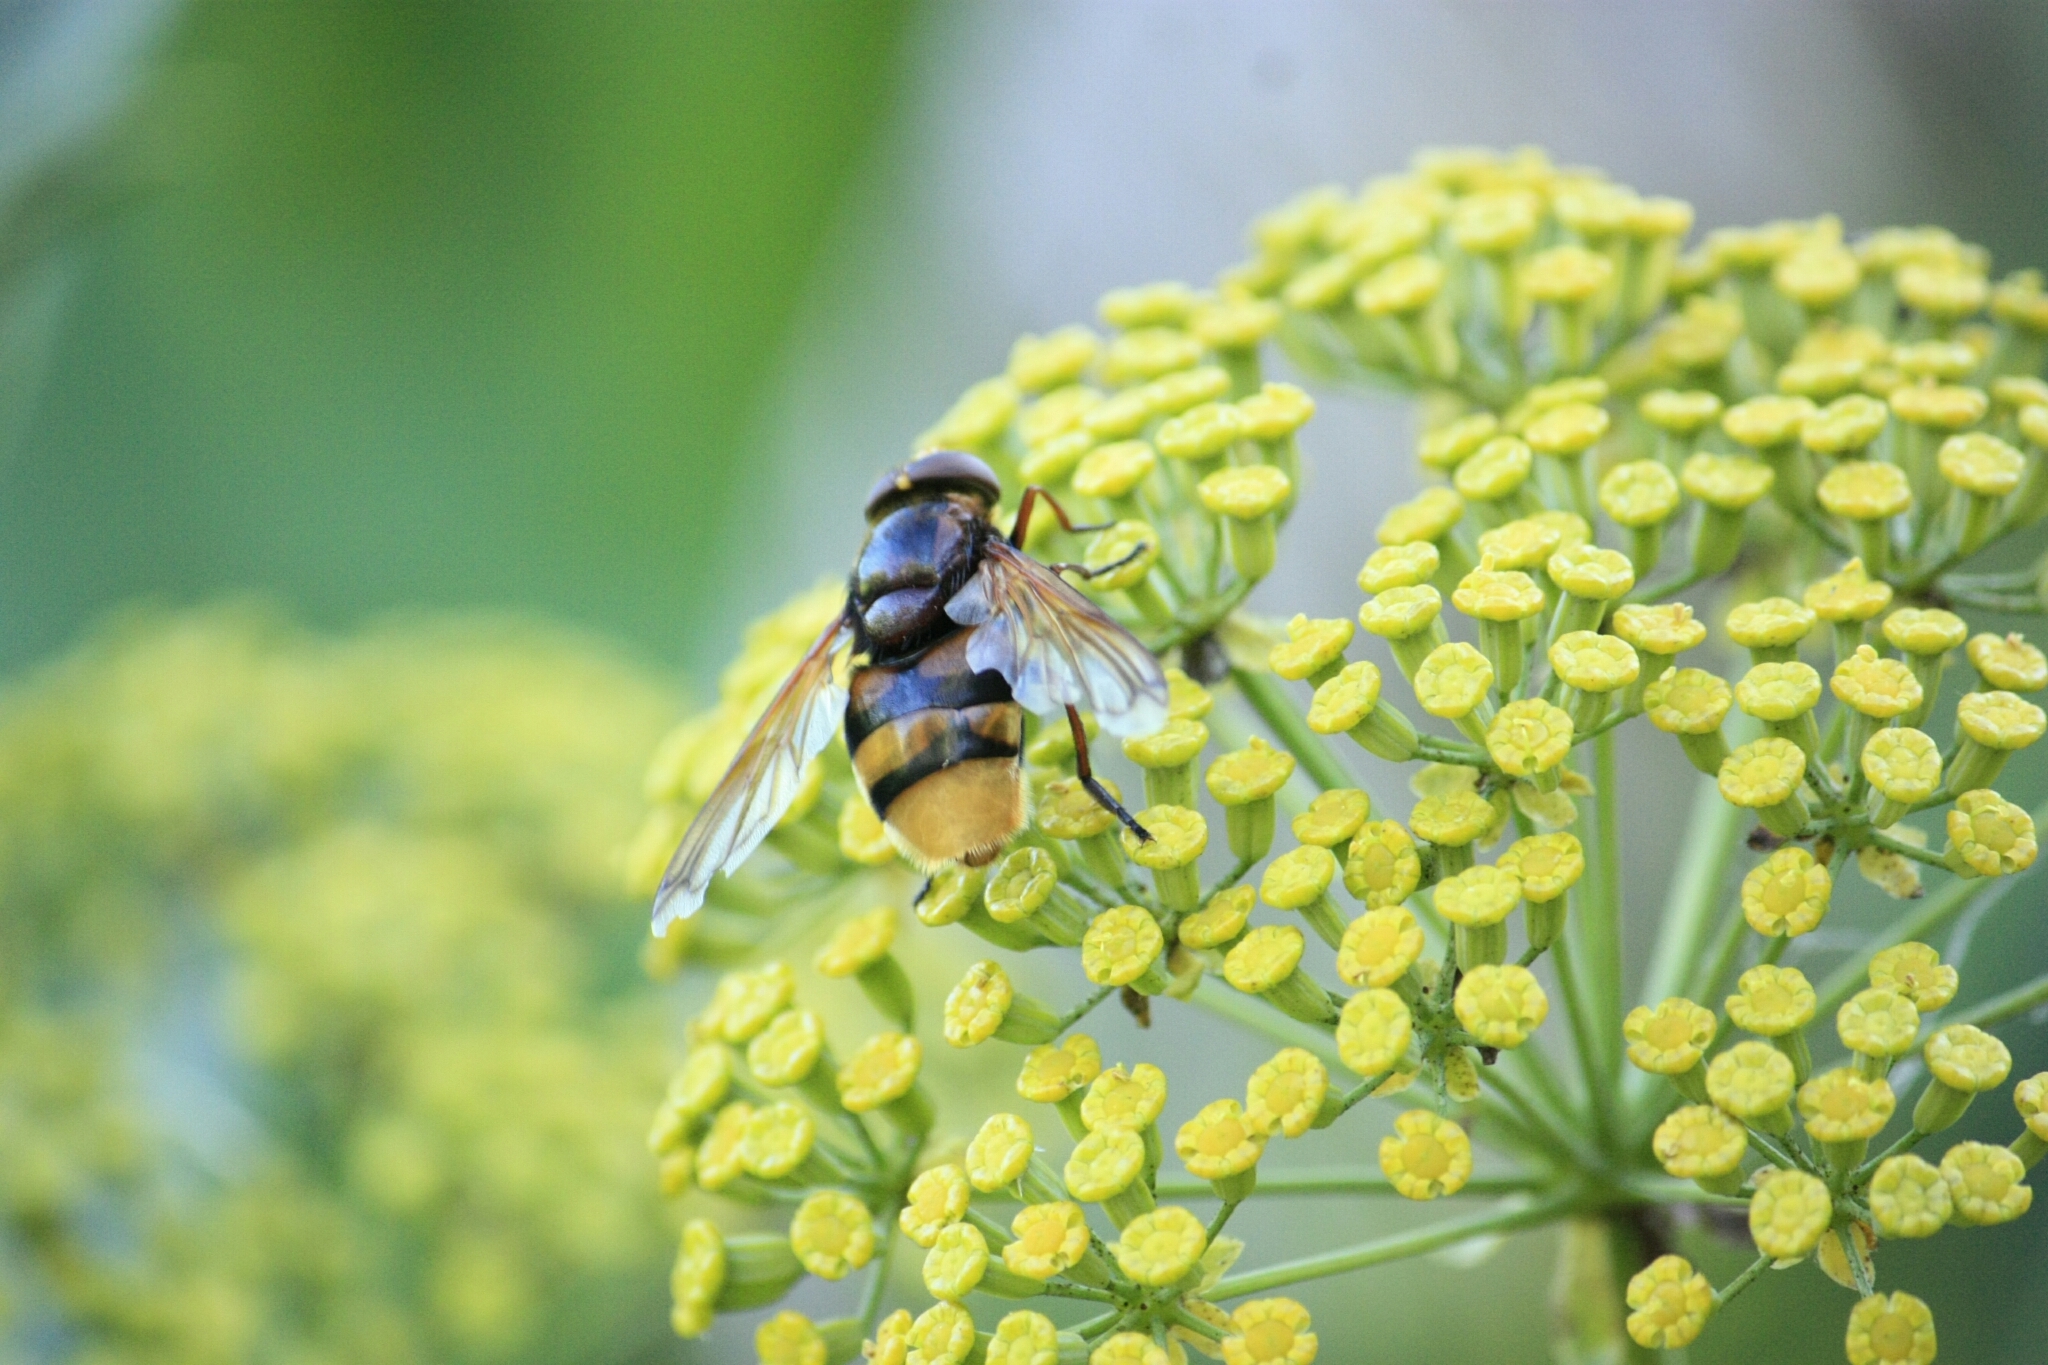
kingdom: Animalia
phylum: Arthropoda
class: Insecta
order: Diptera
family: Syrphidae
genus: Volucella
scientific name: Volucella zonaria
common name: Hornet hoverfly
